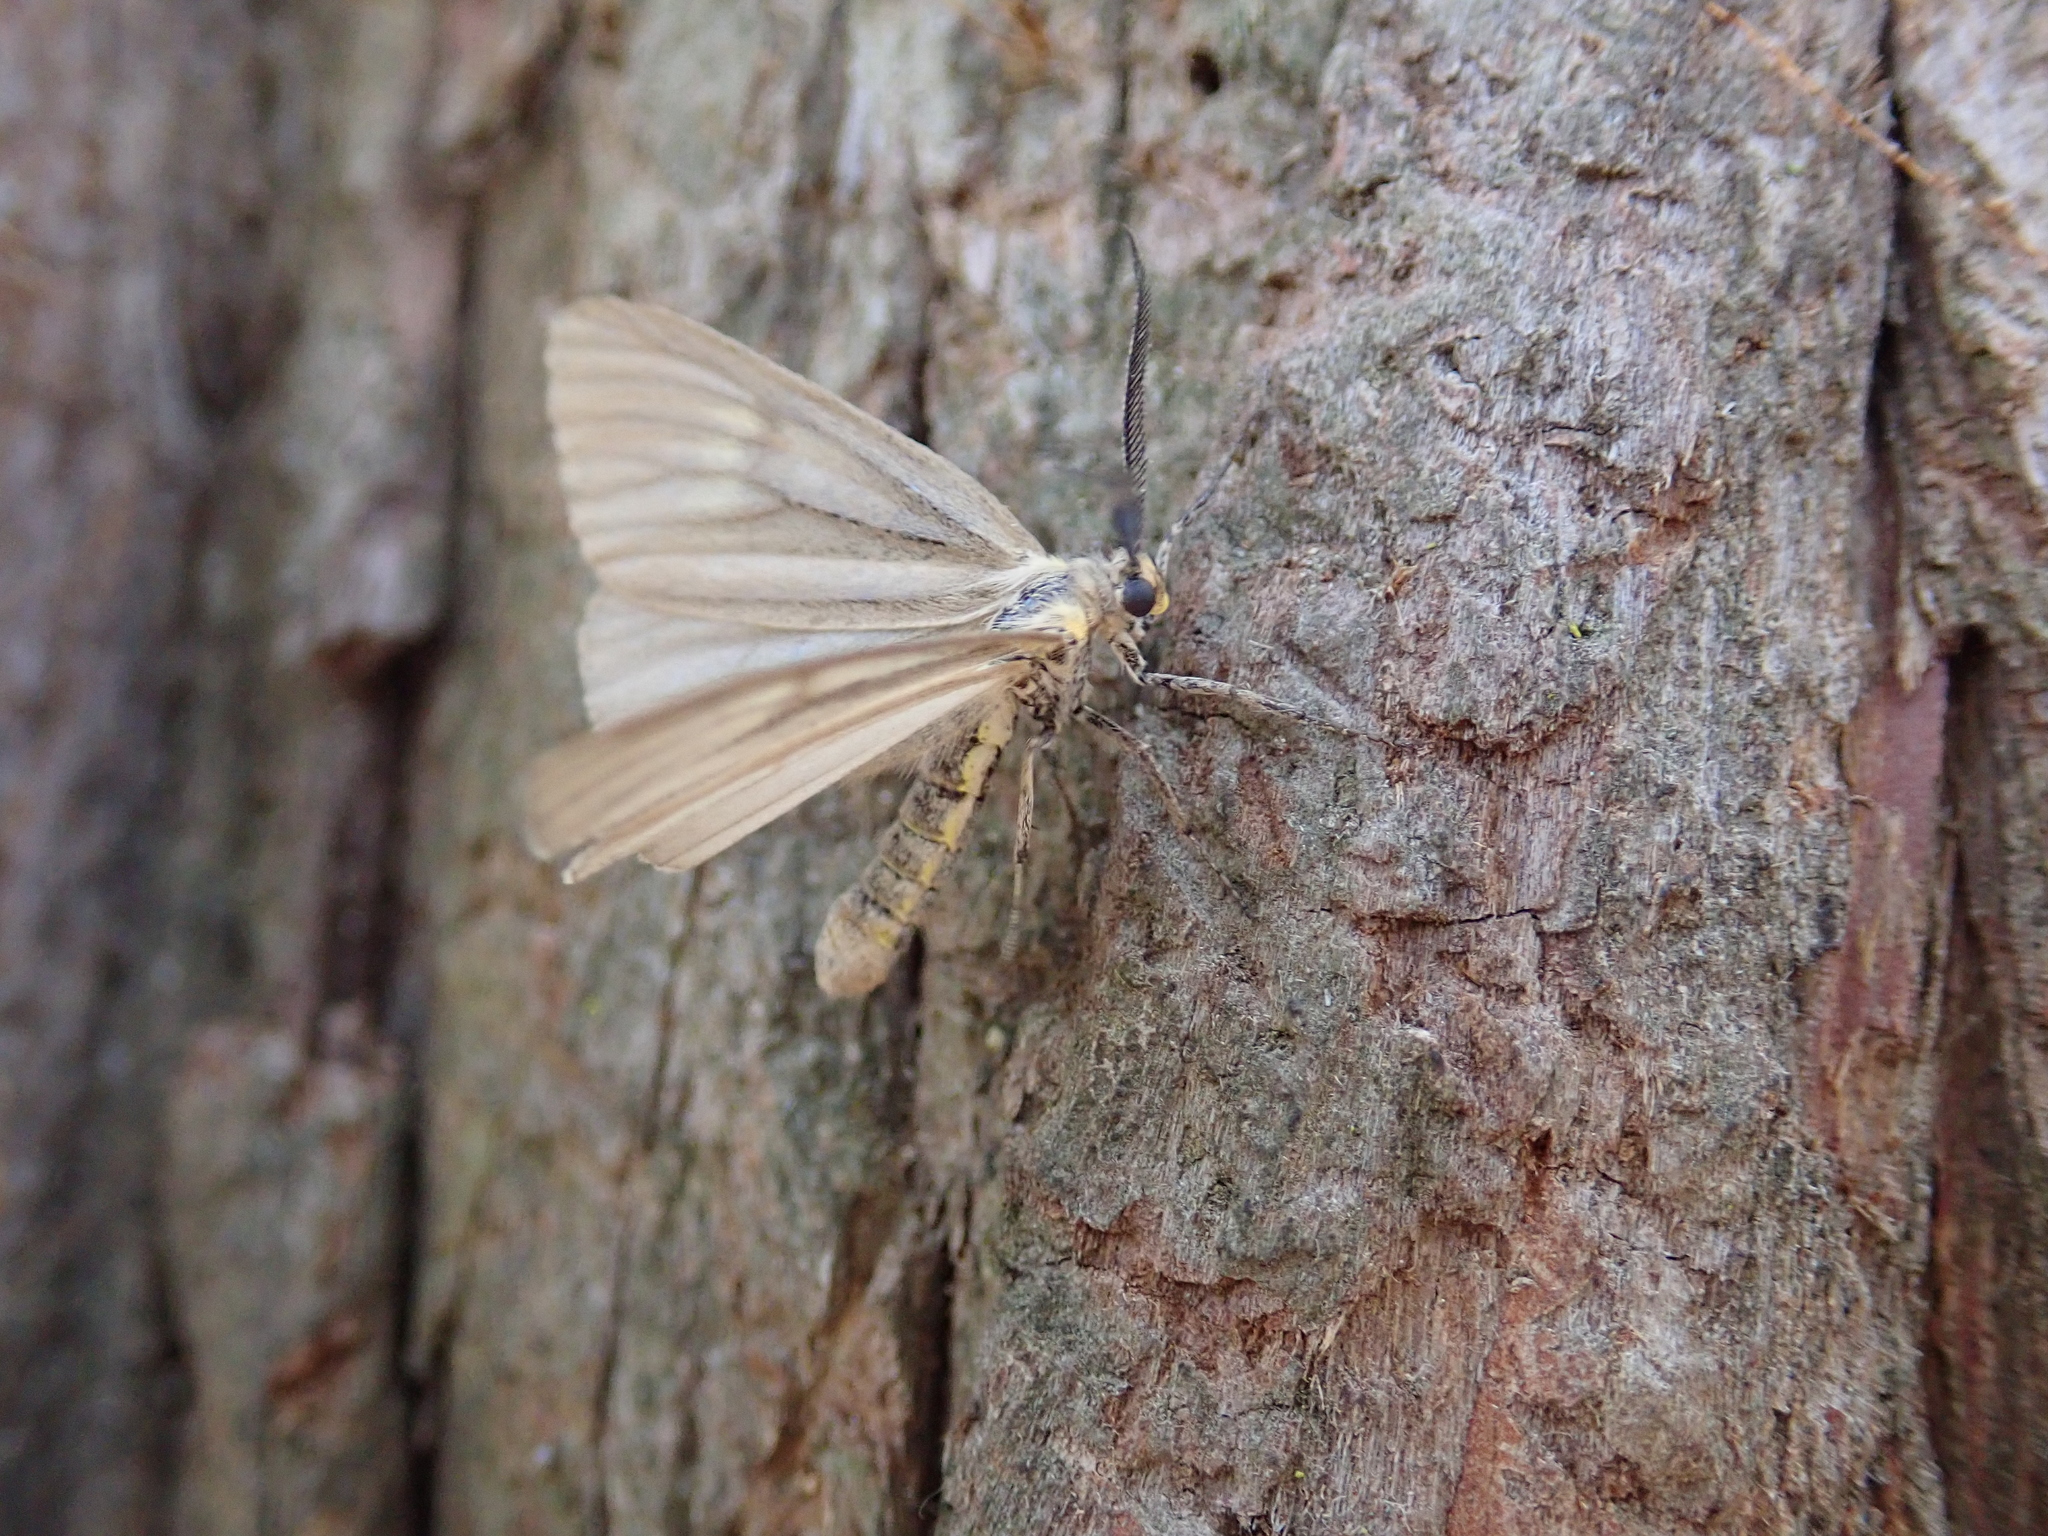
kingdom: Animalia
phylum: Arthropoda
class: Insecta
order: Lepidoptera
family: Notodontidae
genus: Phryganidia
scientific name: Phryganidia californica
